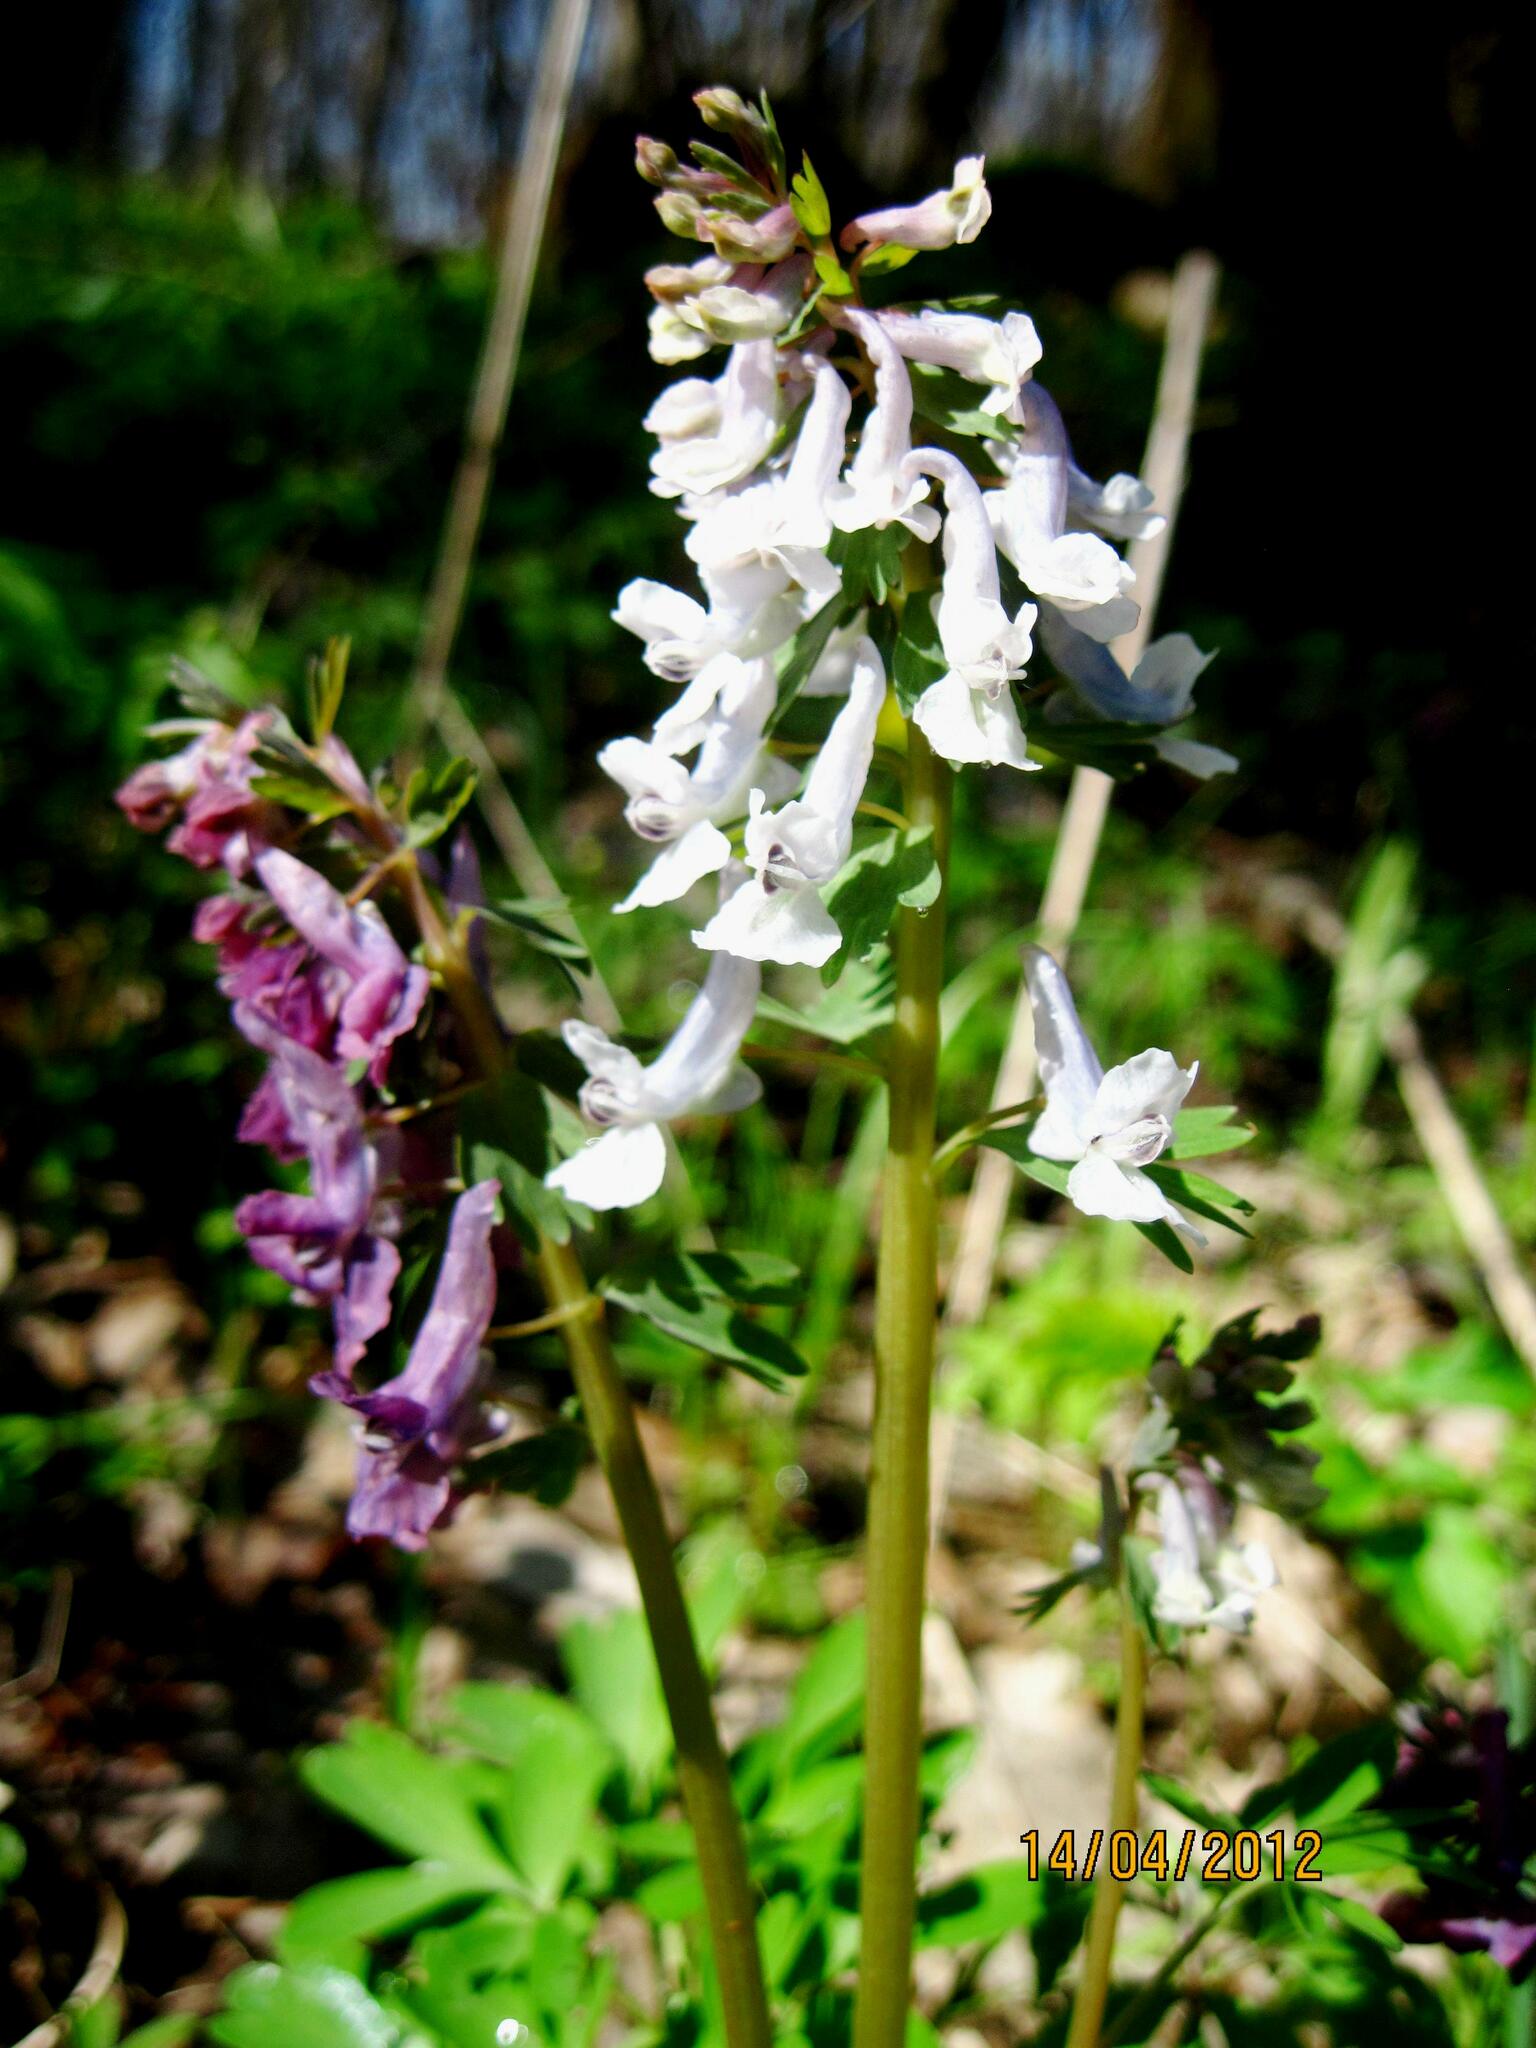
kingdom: Plantae
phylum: Tracheophyta
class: Magnoliopsida
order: Ranunculales
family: Papaveraceae
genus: Corydalis
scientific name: Corydalis solida
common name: Bird-in-a-bush
